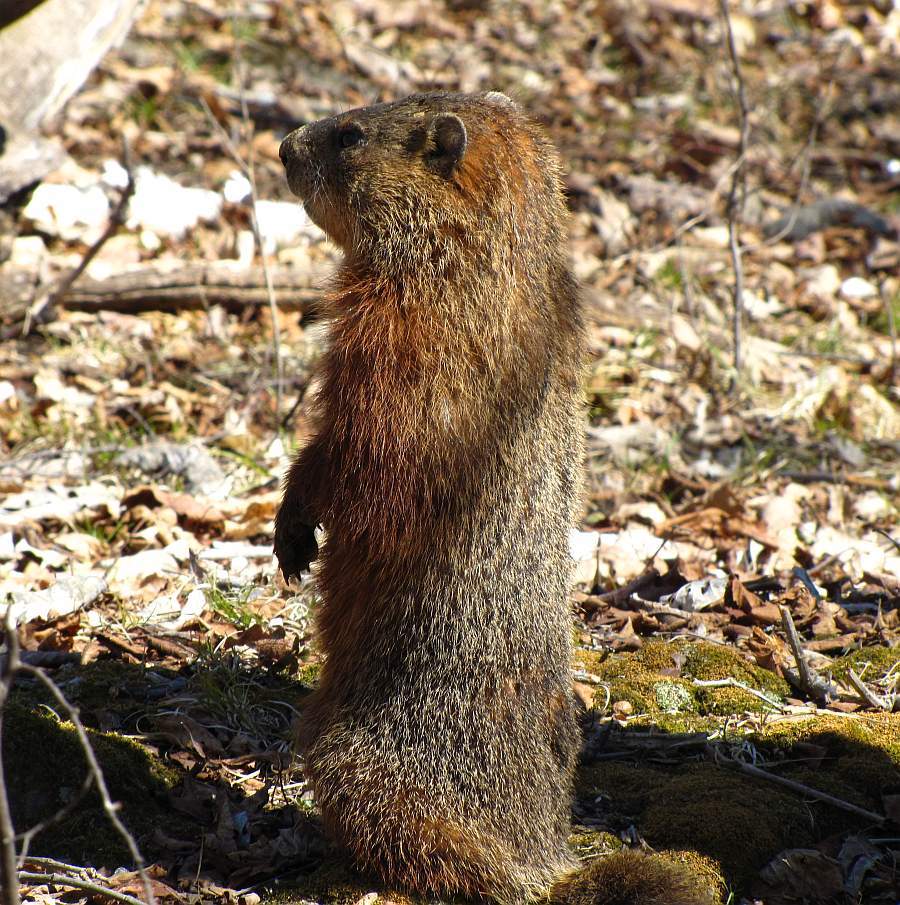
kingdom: Animalia
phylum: Chordata
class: Mammalia
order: Rodentia
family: Sciuridae
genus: Marmota
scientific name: Marmota monax
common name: Groundhog
